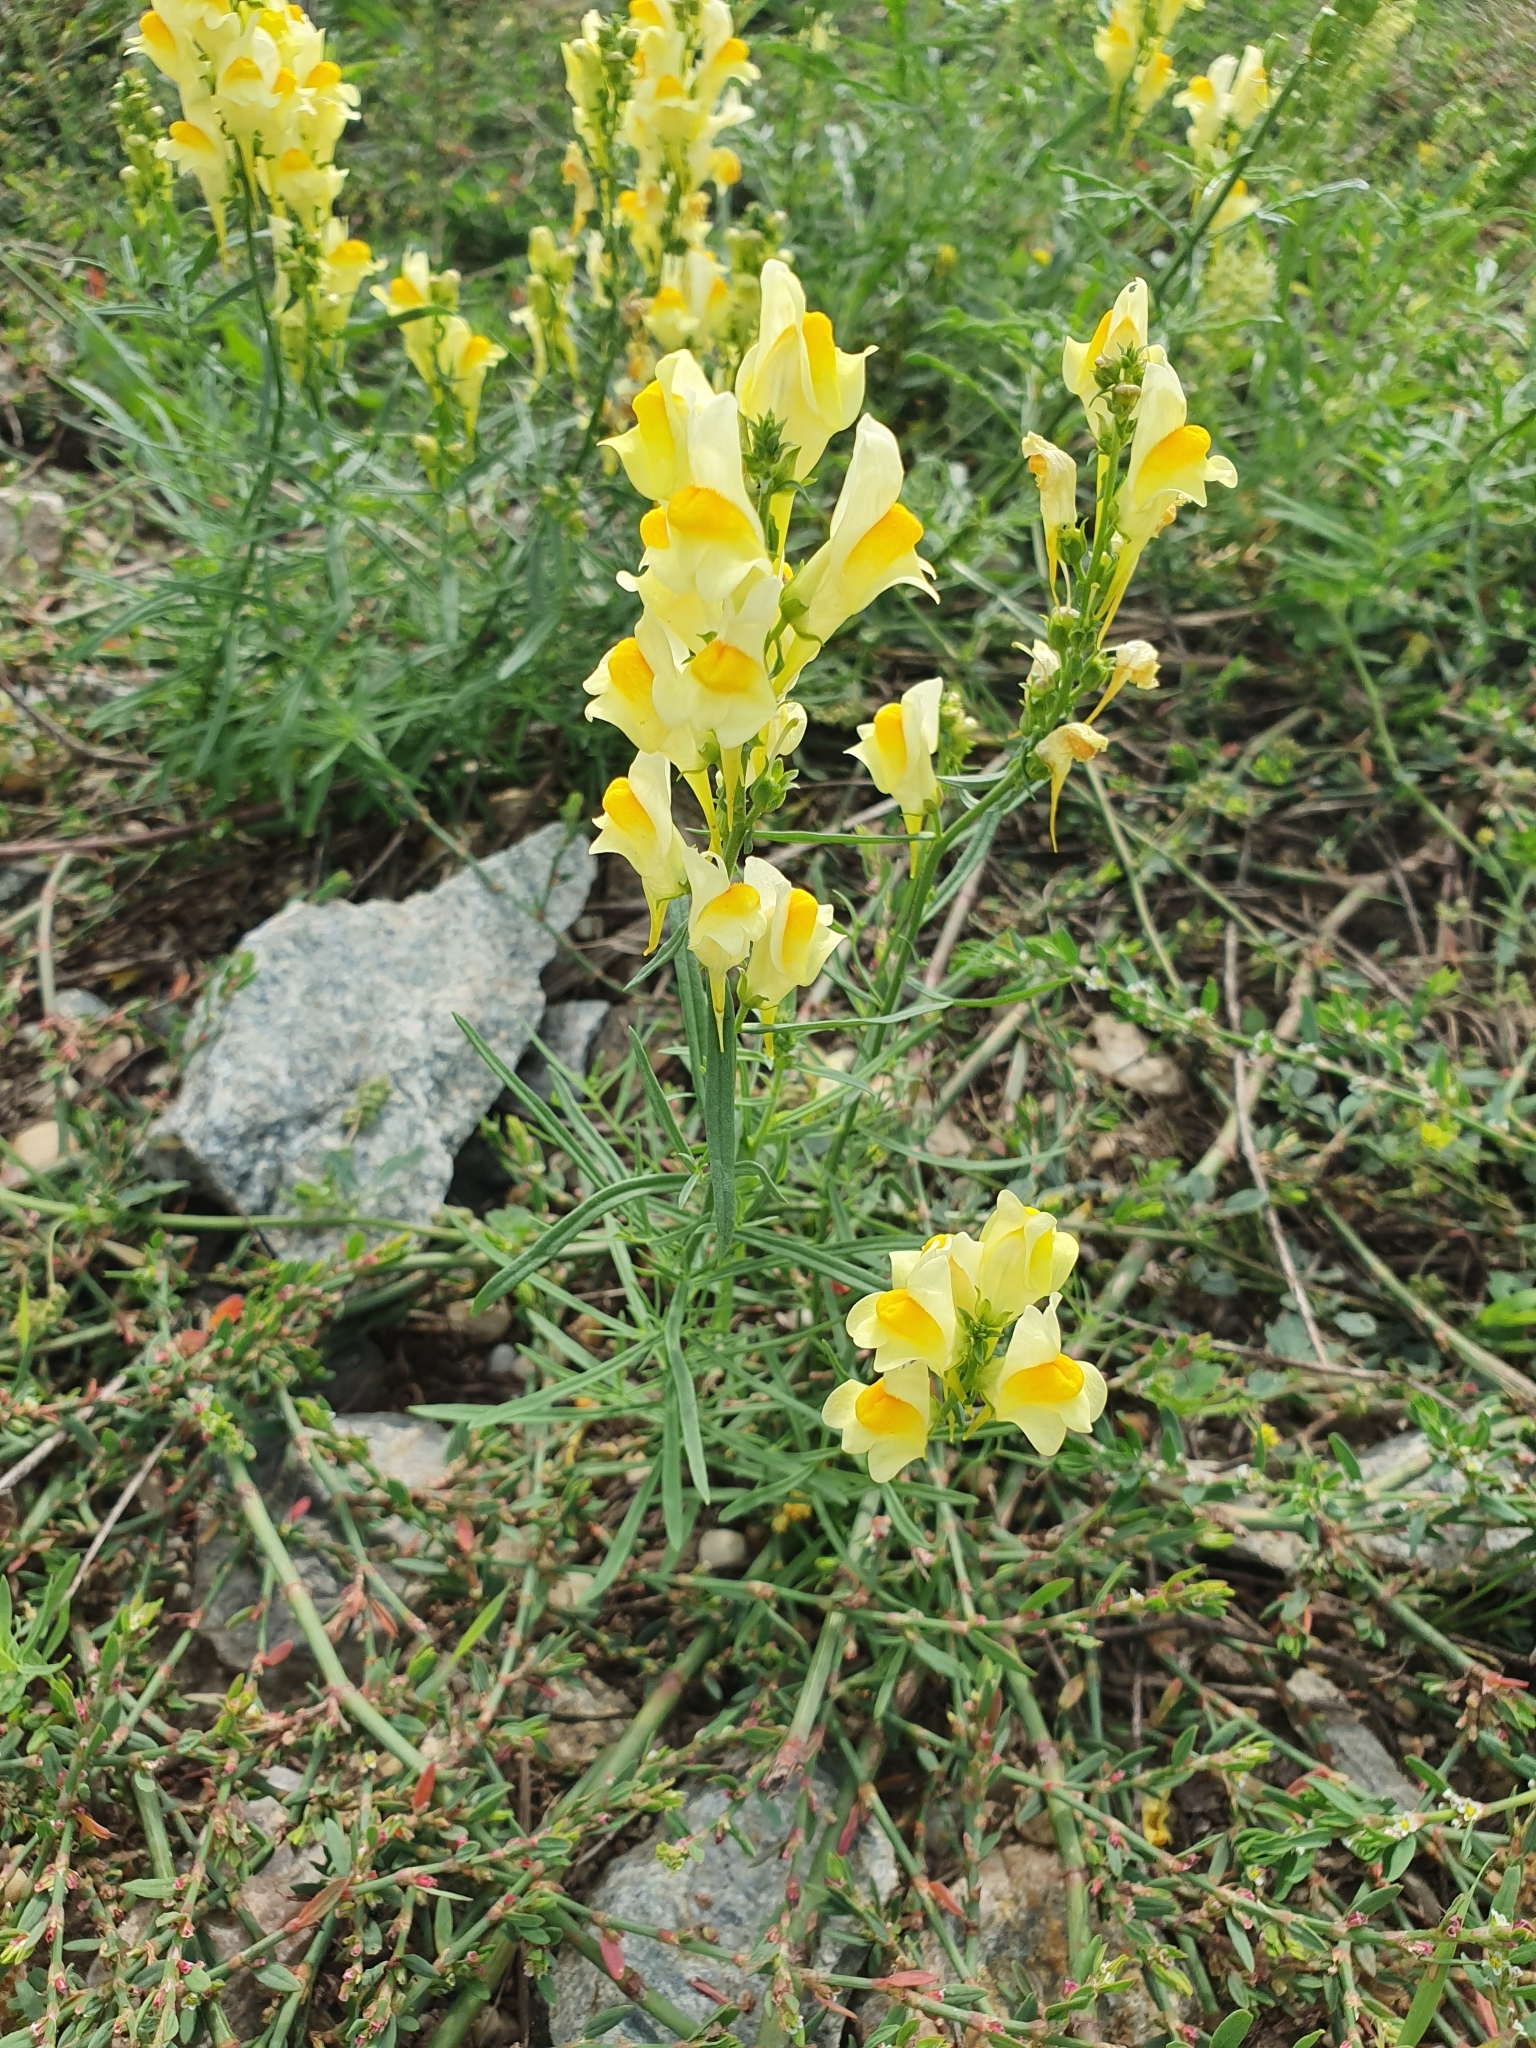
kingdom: Plantae
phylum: Tracheophyta
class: Magnoliopsida
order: Lamiales
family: Plantaginaceae
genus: Linaria
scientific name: Linaria vulgaris
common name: Butter and eggs
